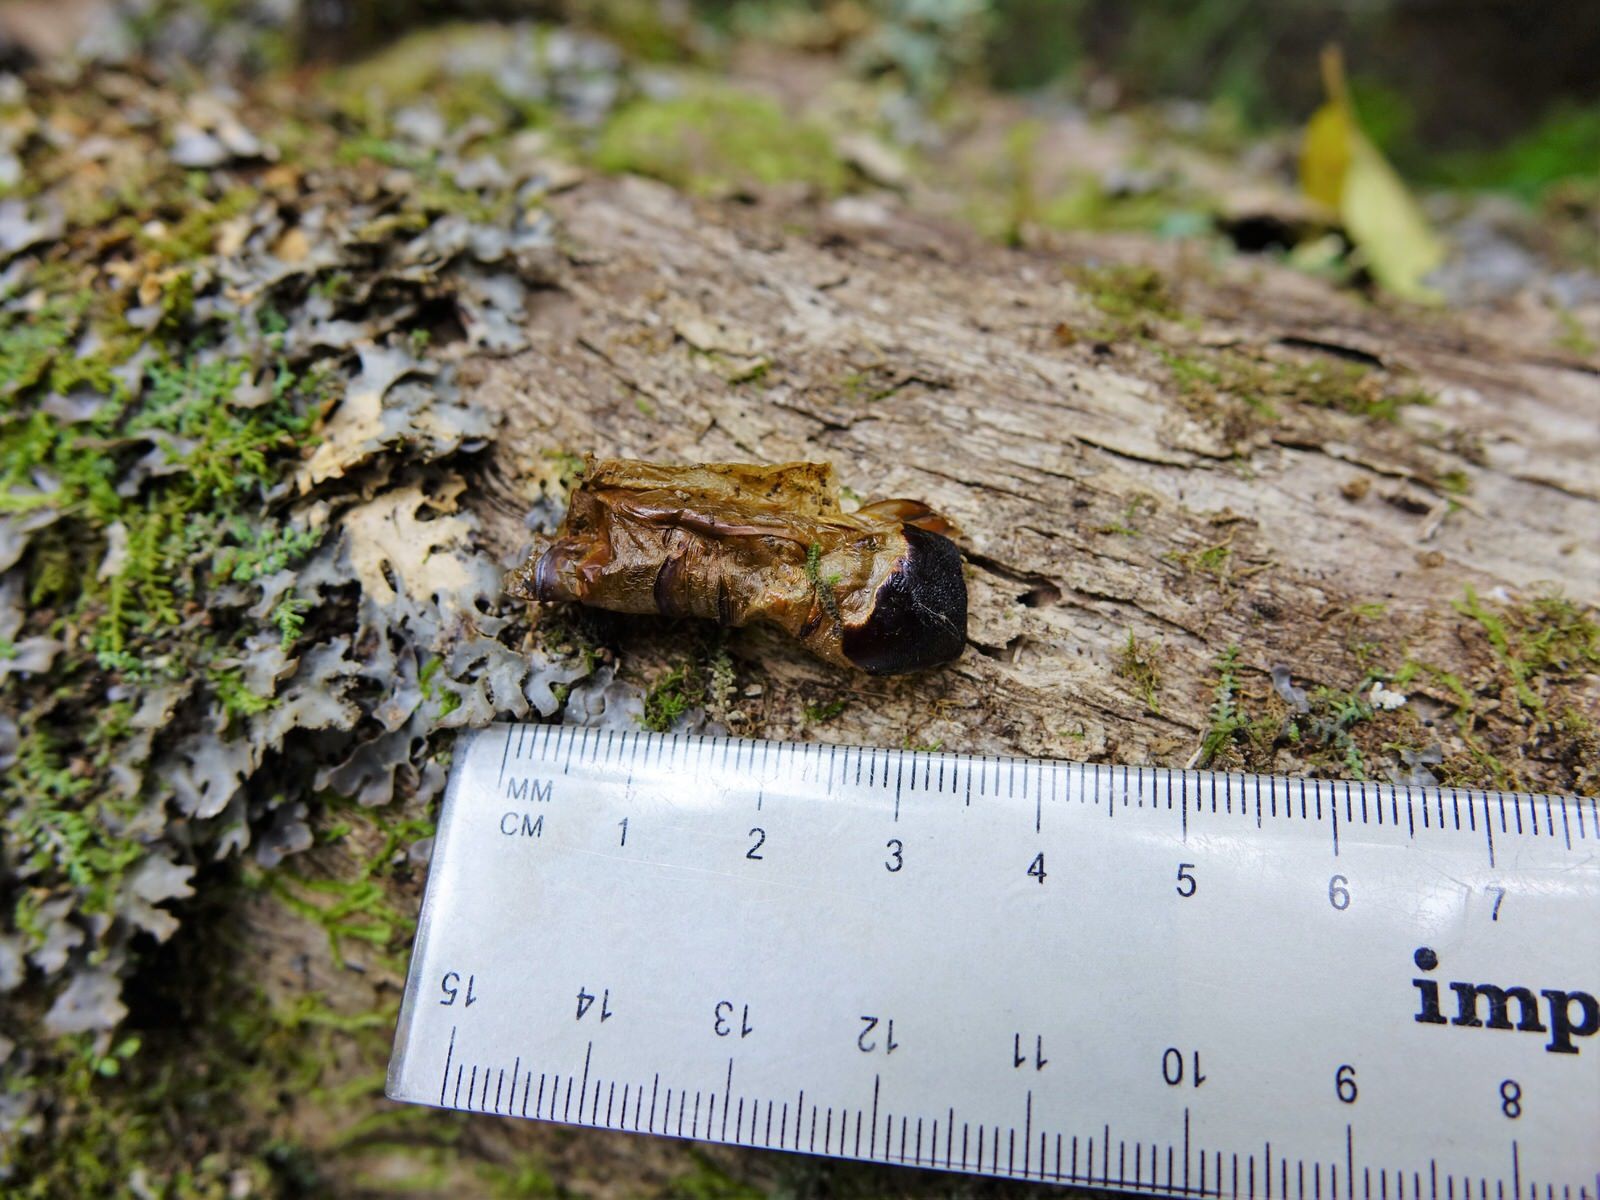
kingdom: Animalia
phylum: Arthropoda
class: Insecta
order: Lepidoptera
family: Hepialidae
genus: Aenetus
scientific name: Aenetus virescens
